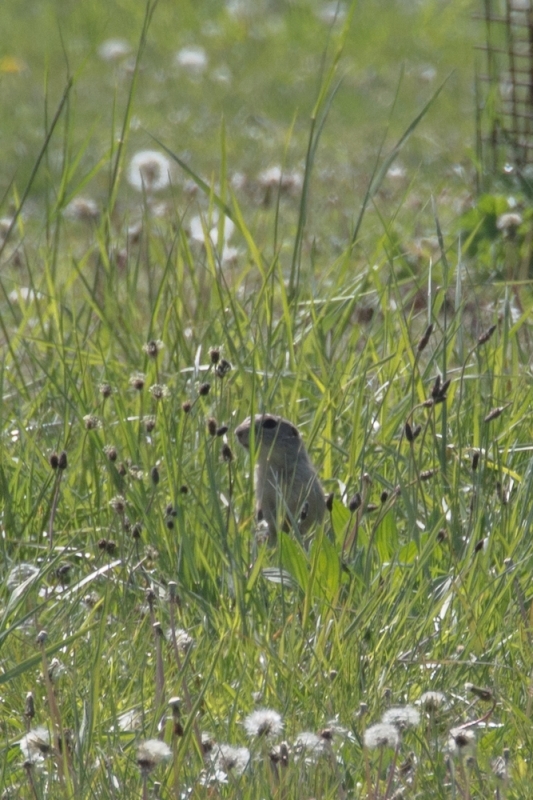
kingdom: Animalia
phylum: Chordata
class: Mammalia
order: Rodentia
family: Sciuridae
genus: Spermophilus
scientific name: Spermophilus citellus
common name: European ground squirrel
